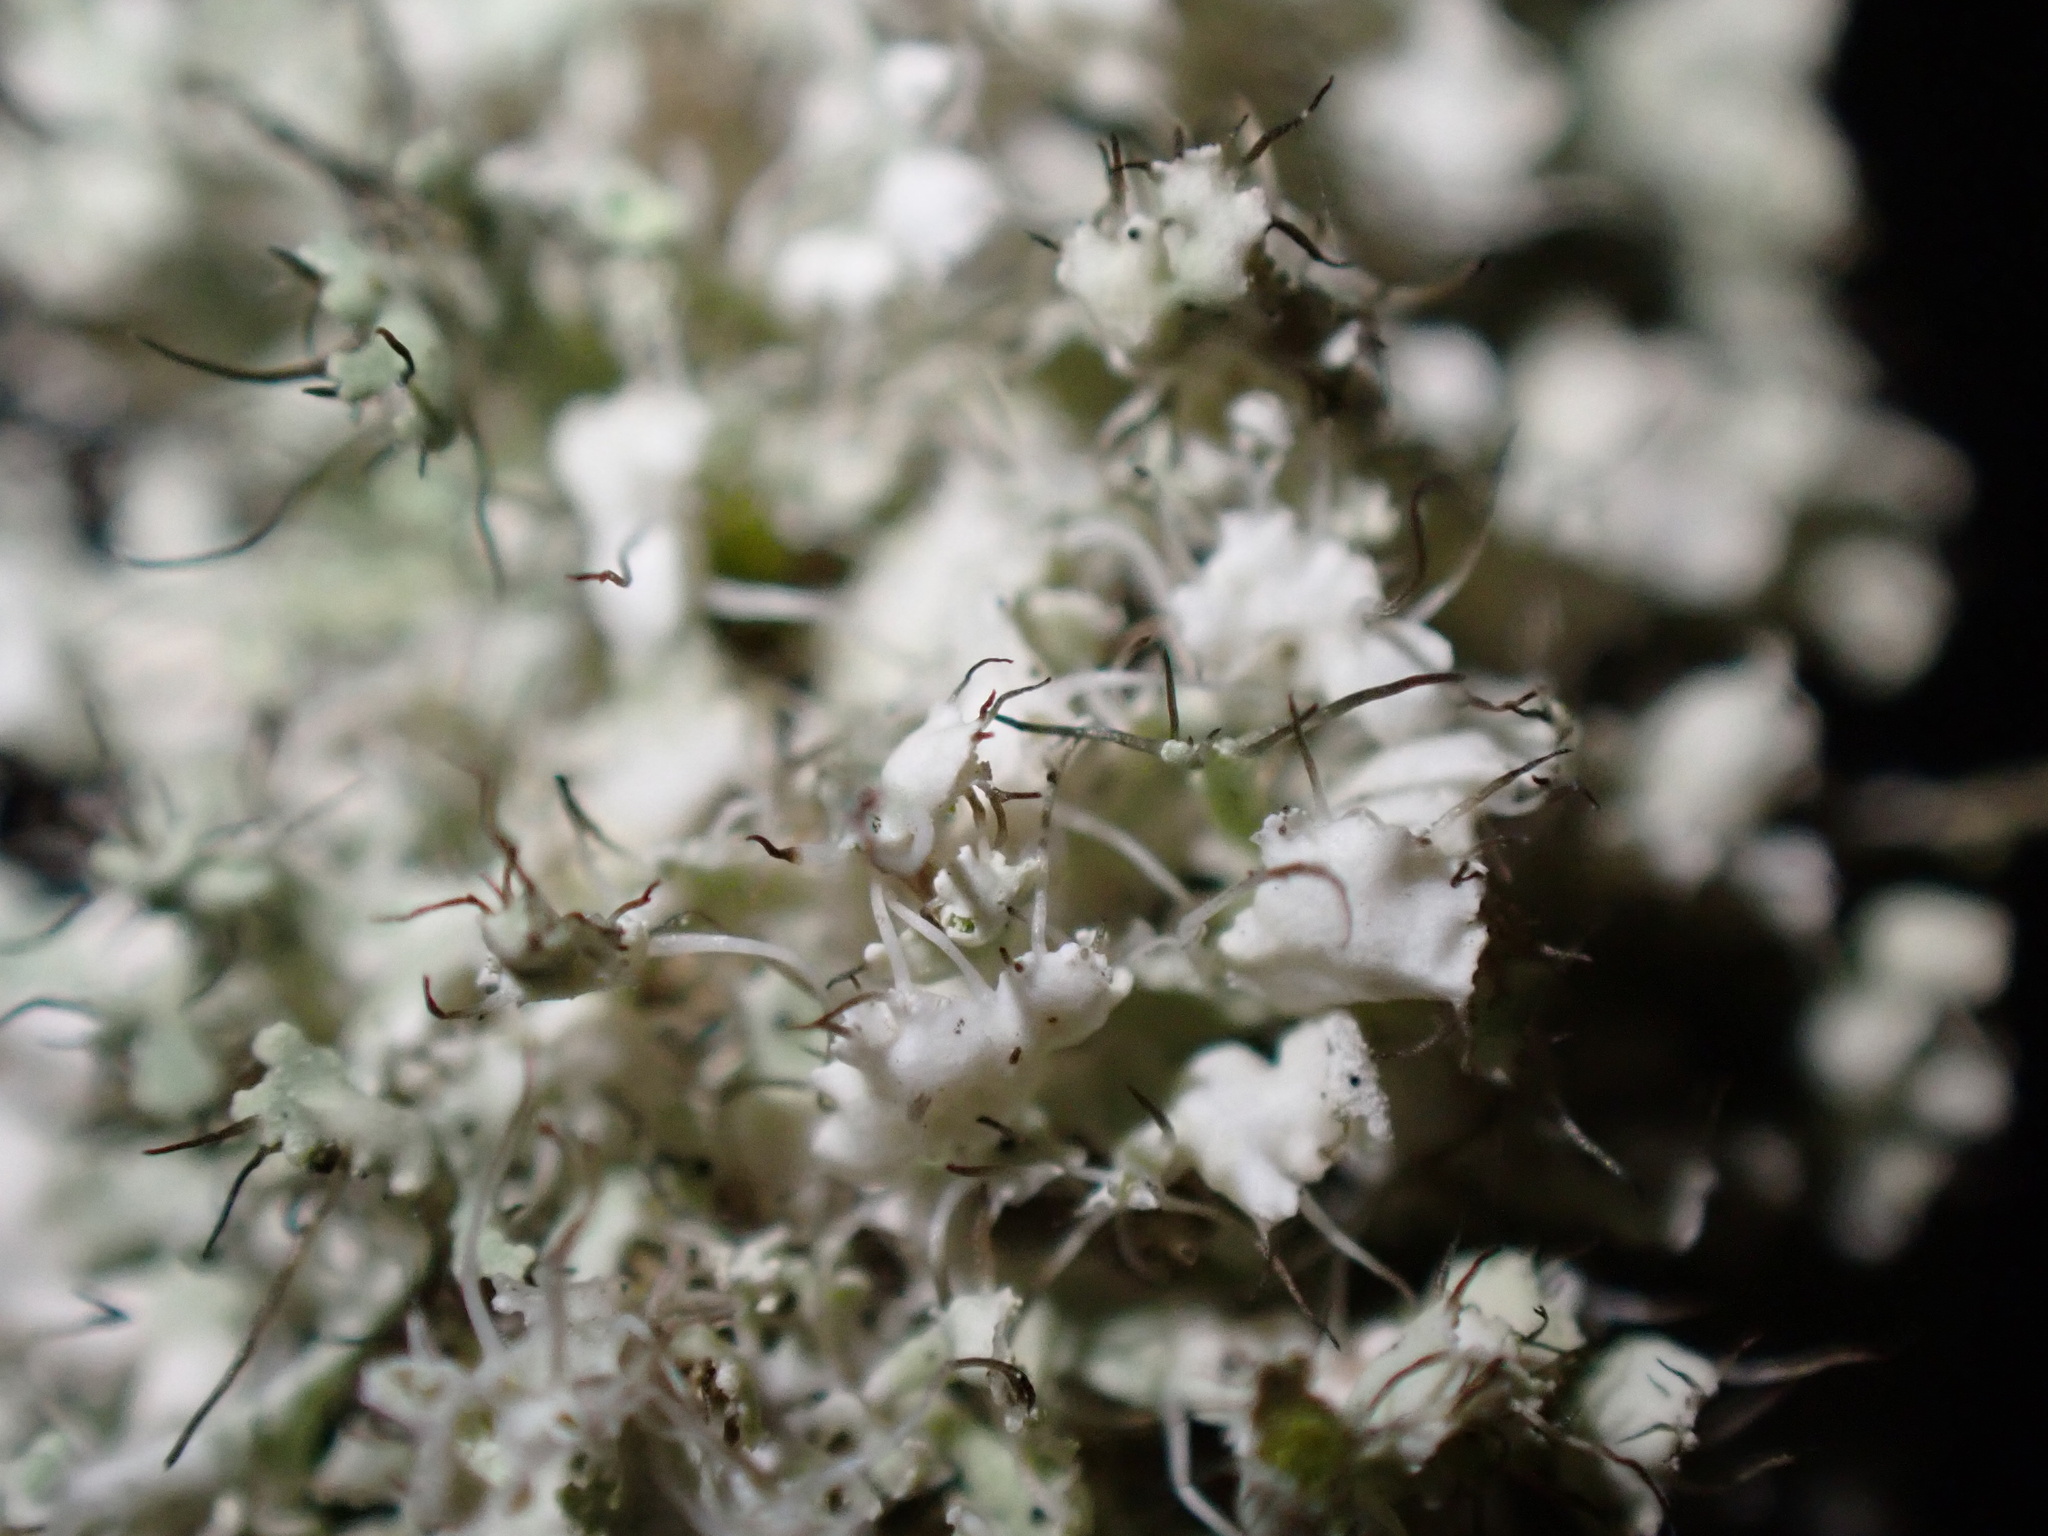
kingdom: Fungi
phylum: Ascomycota
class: Lecanoromycetes
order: Caliciales
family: Physciaceae
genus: Physcia
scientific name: Physcia adscendens
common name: Hooded rosette lichen
